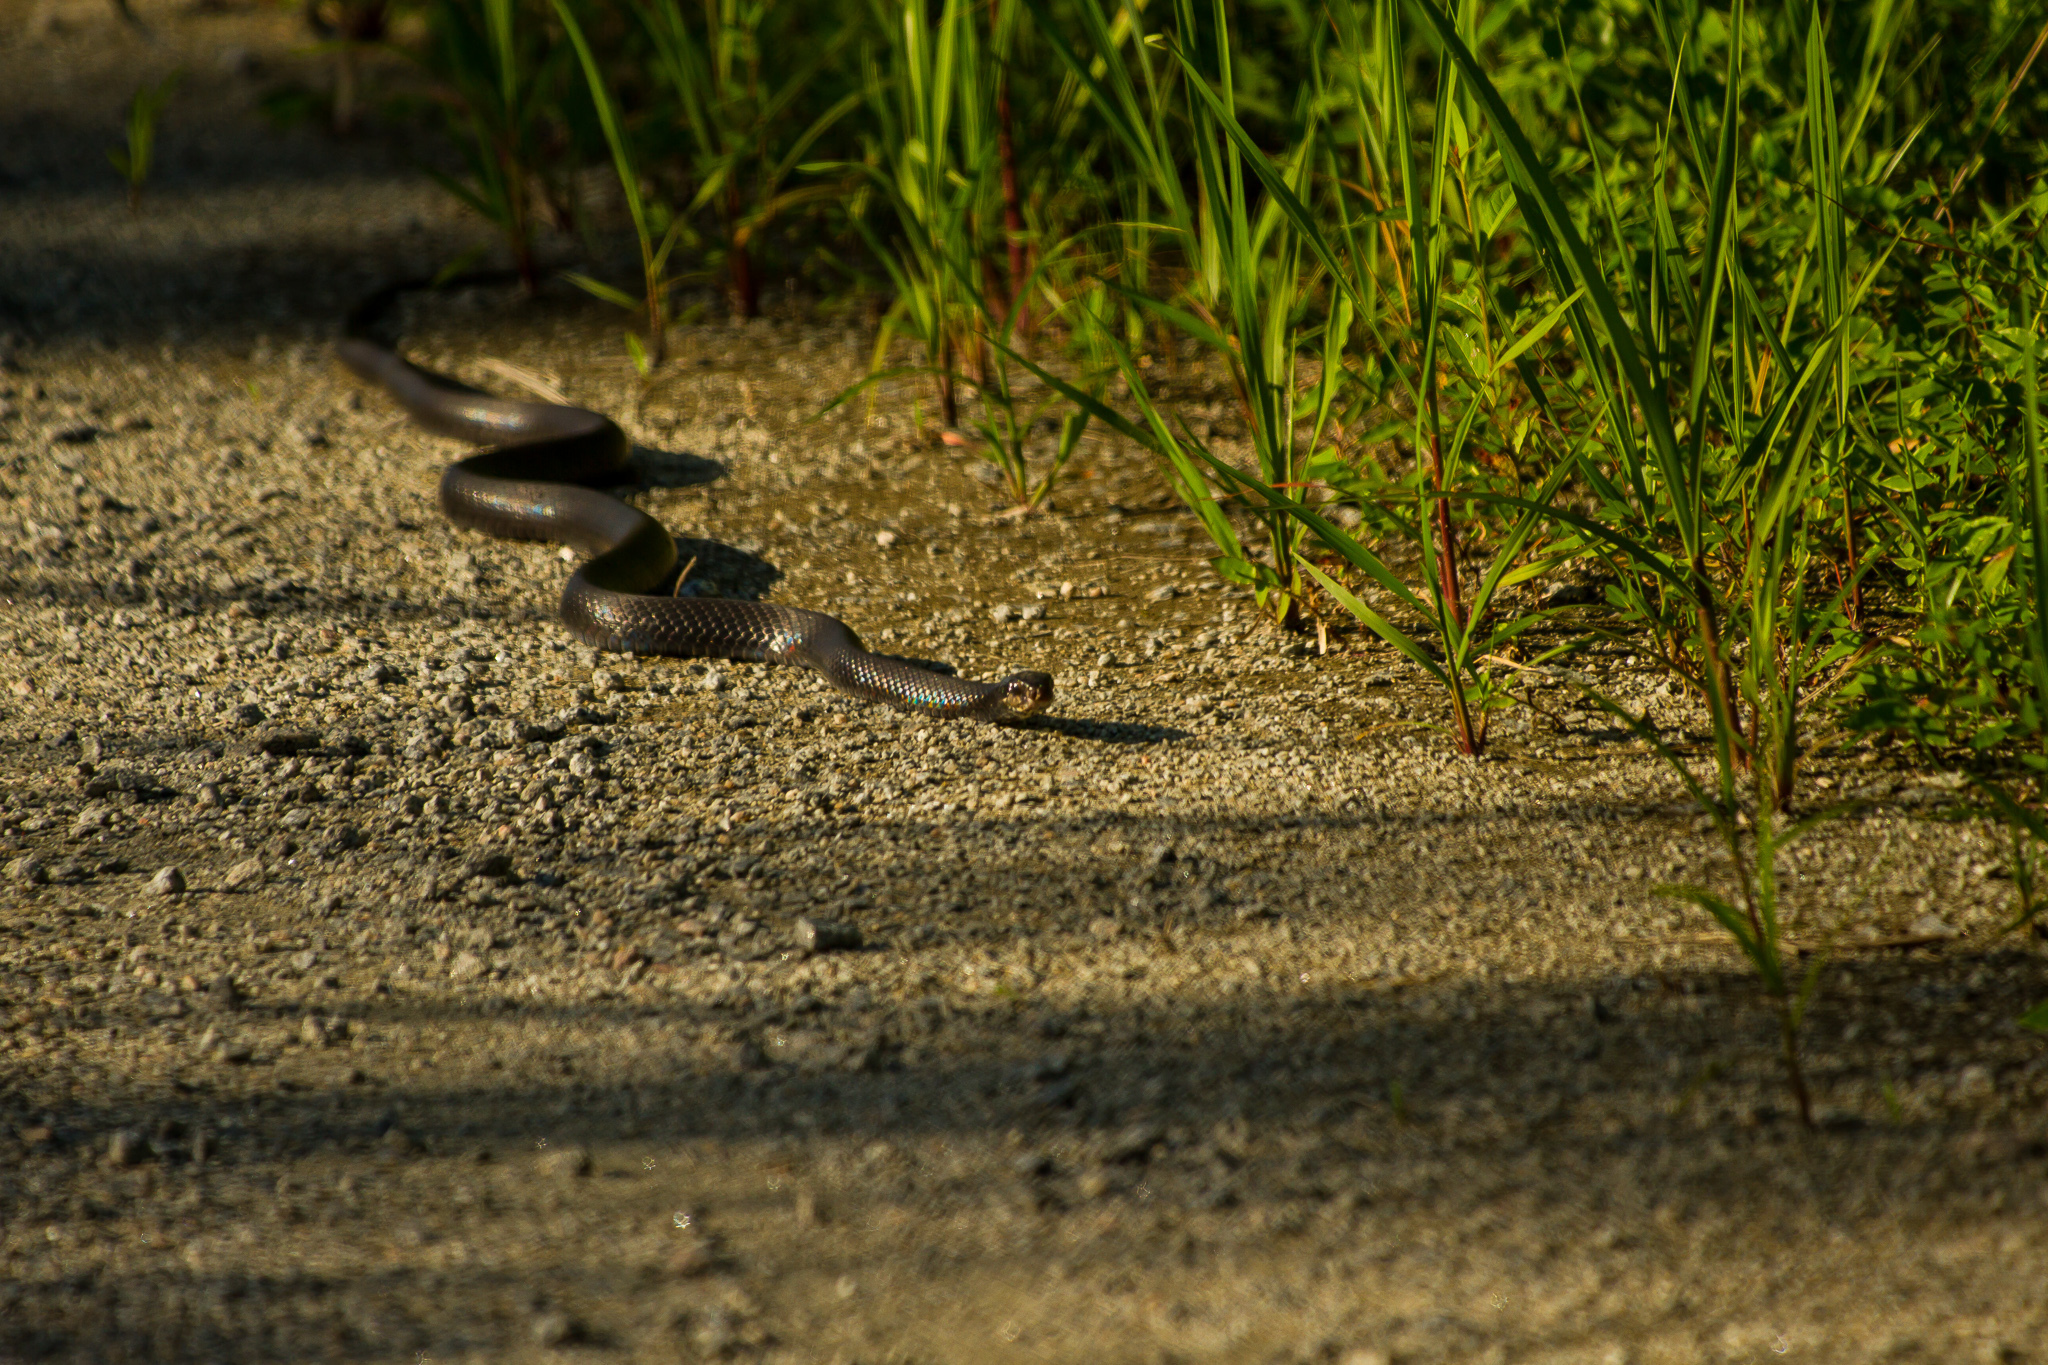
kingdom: Animalia
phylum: Chordata
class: Squamata
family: Colubridae
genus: Coluber
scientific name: Coluber constrictor
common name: Eastern racer
